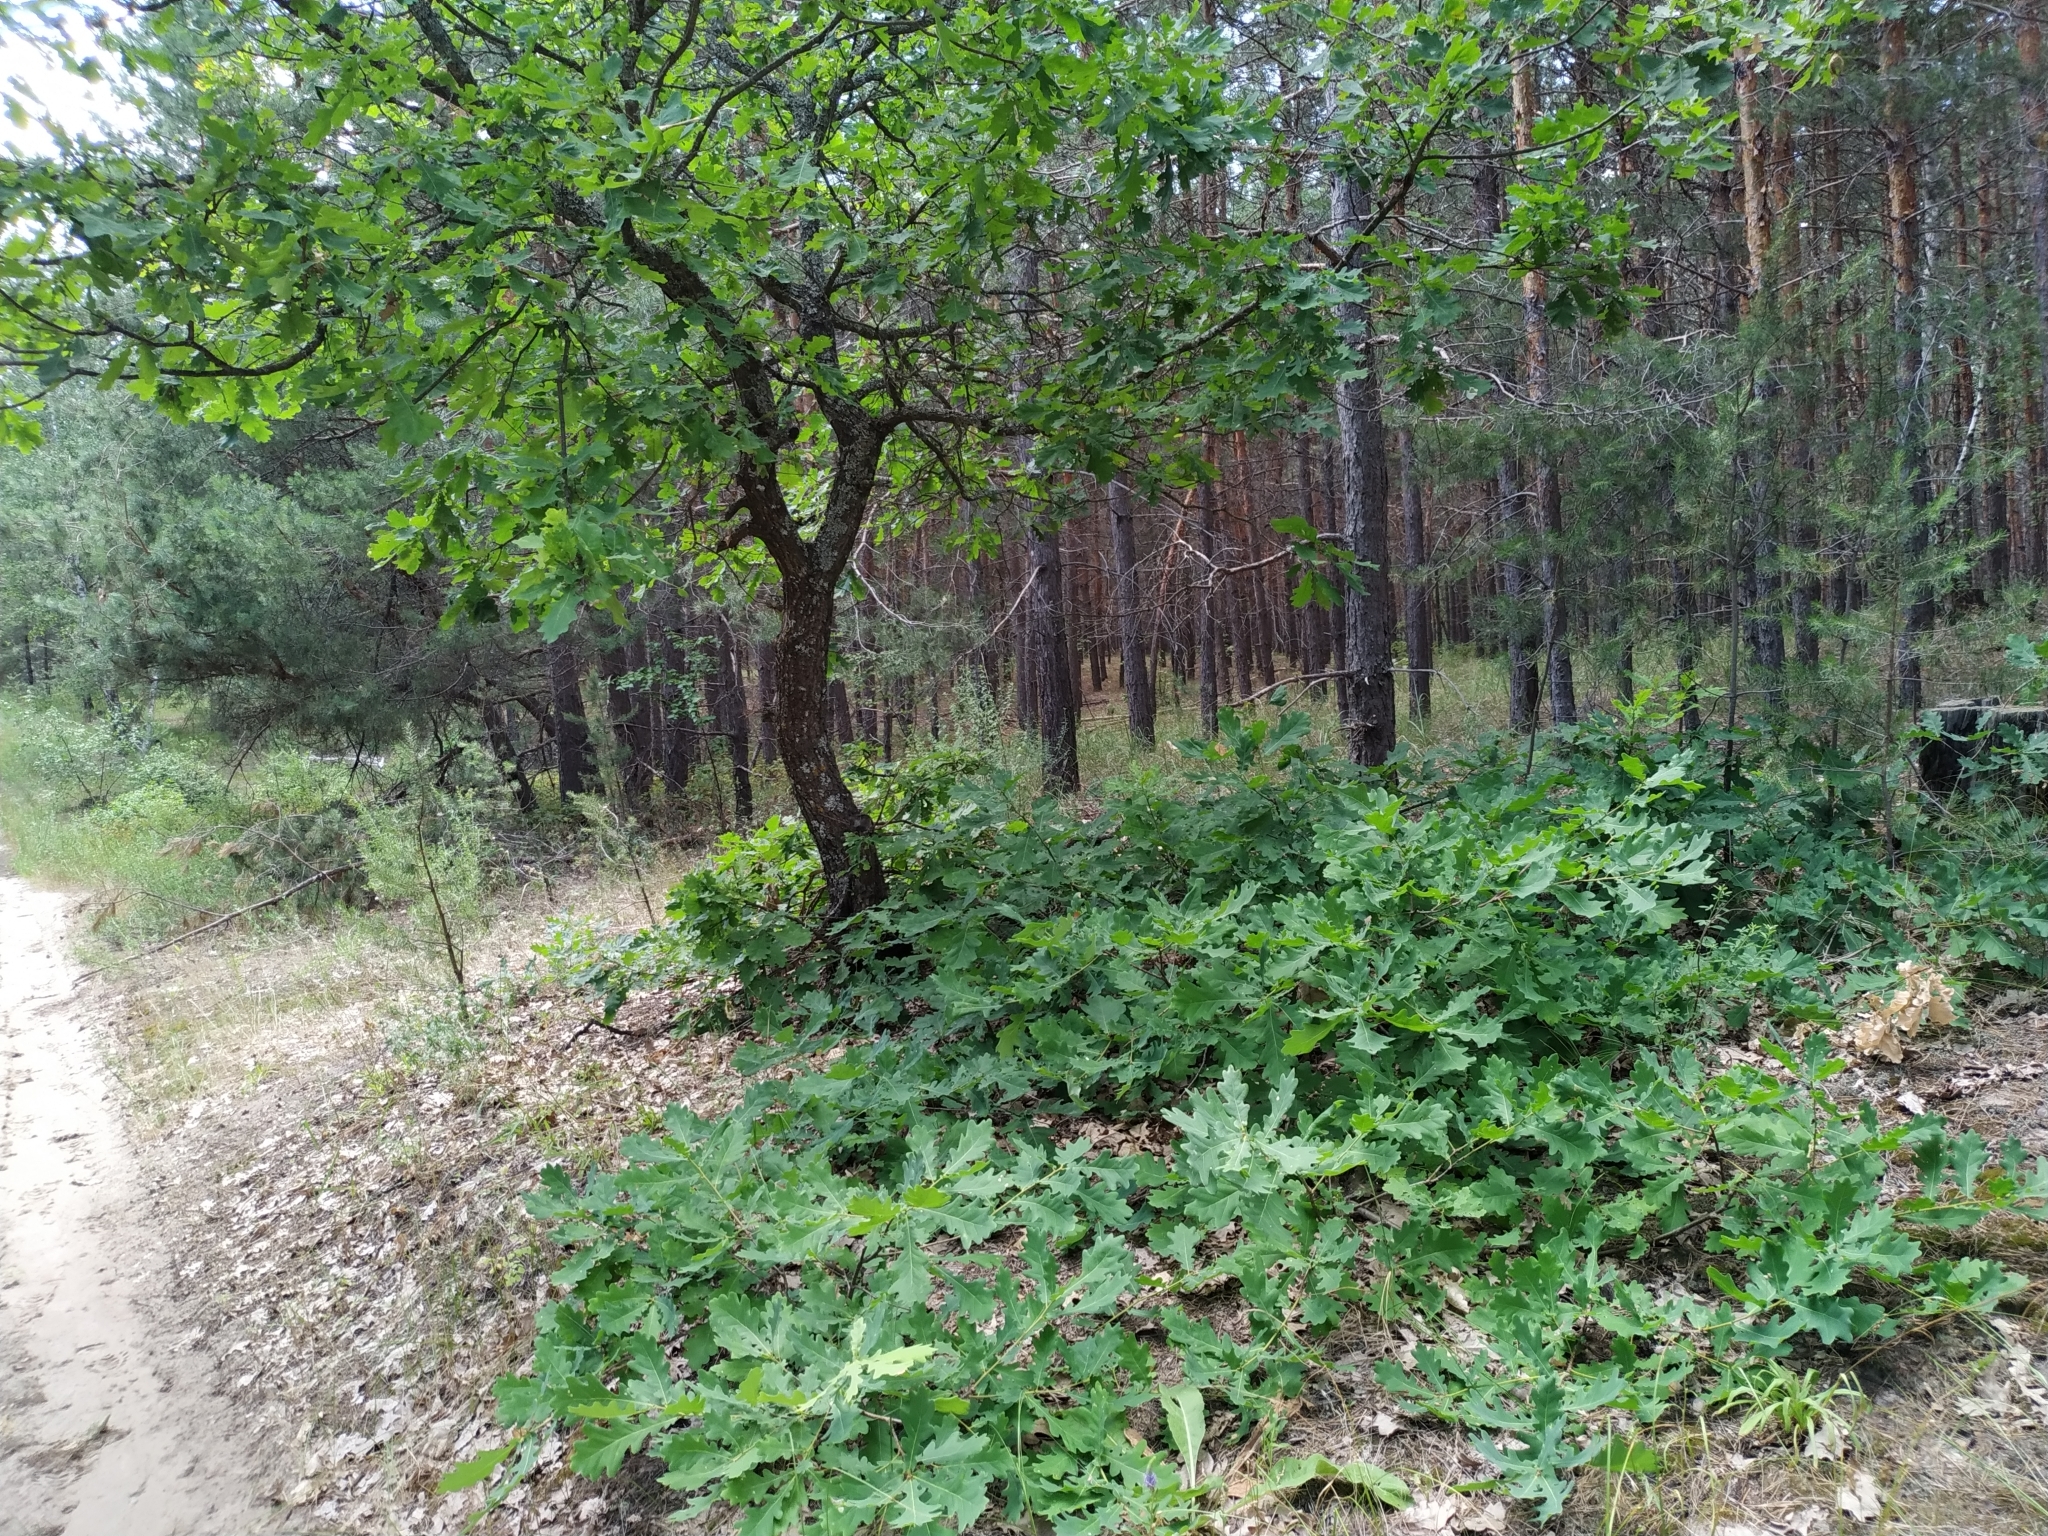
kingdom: Plantae
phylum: Tracheophyta
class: Magnoliopsida
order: Fagales
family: Fagaceae
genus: Quercus
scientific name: Quercus robur
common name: Pedunculate oak
